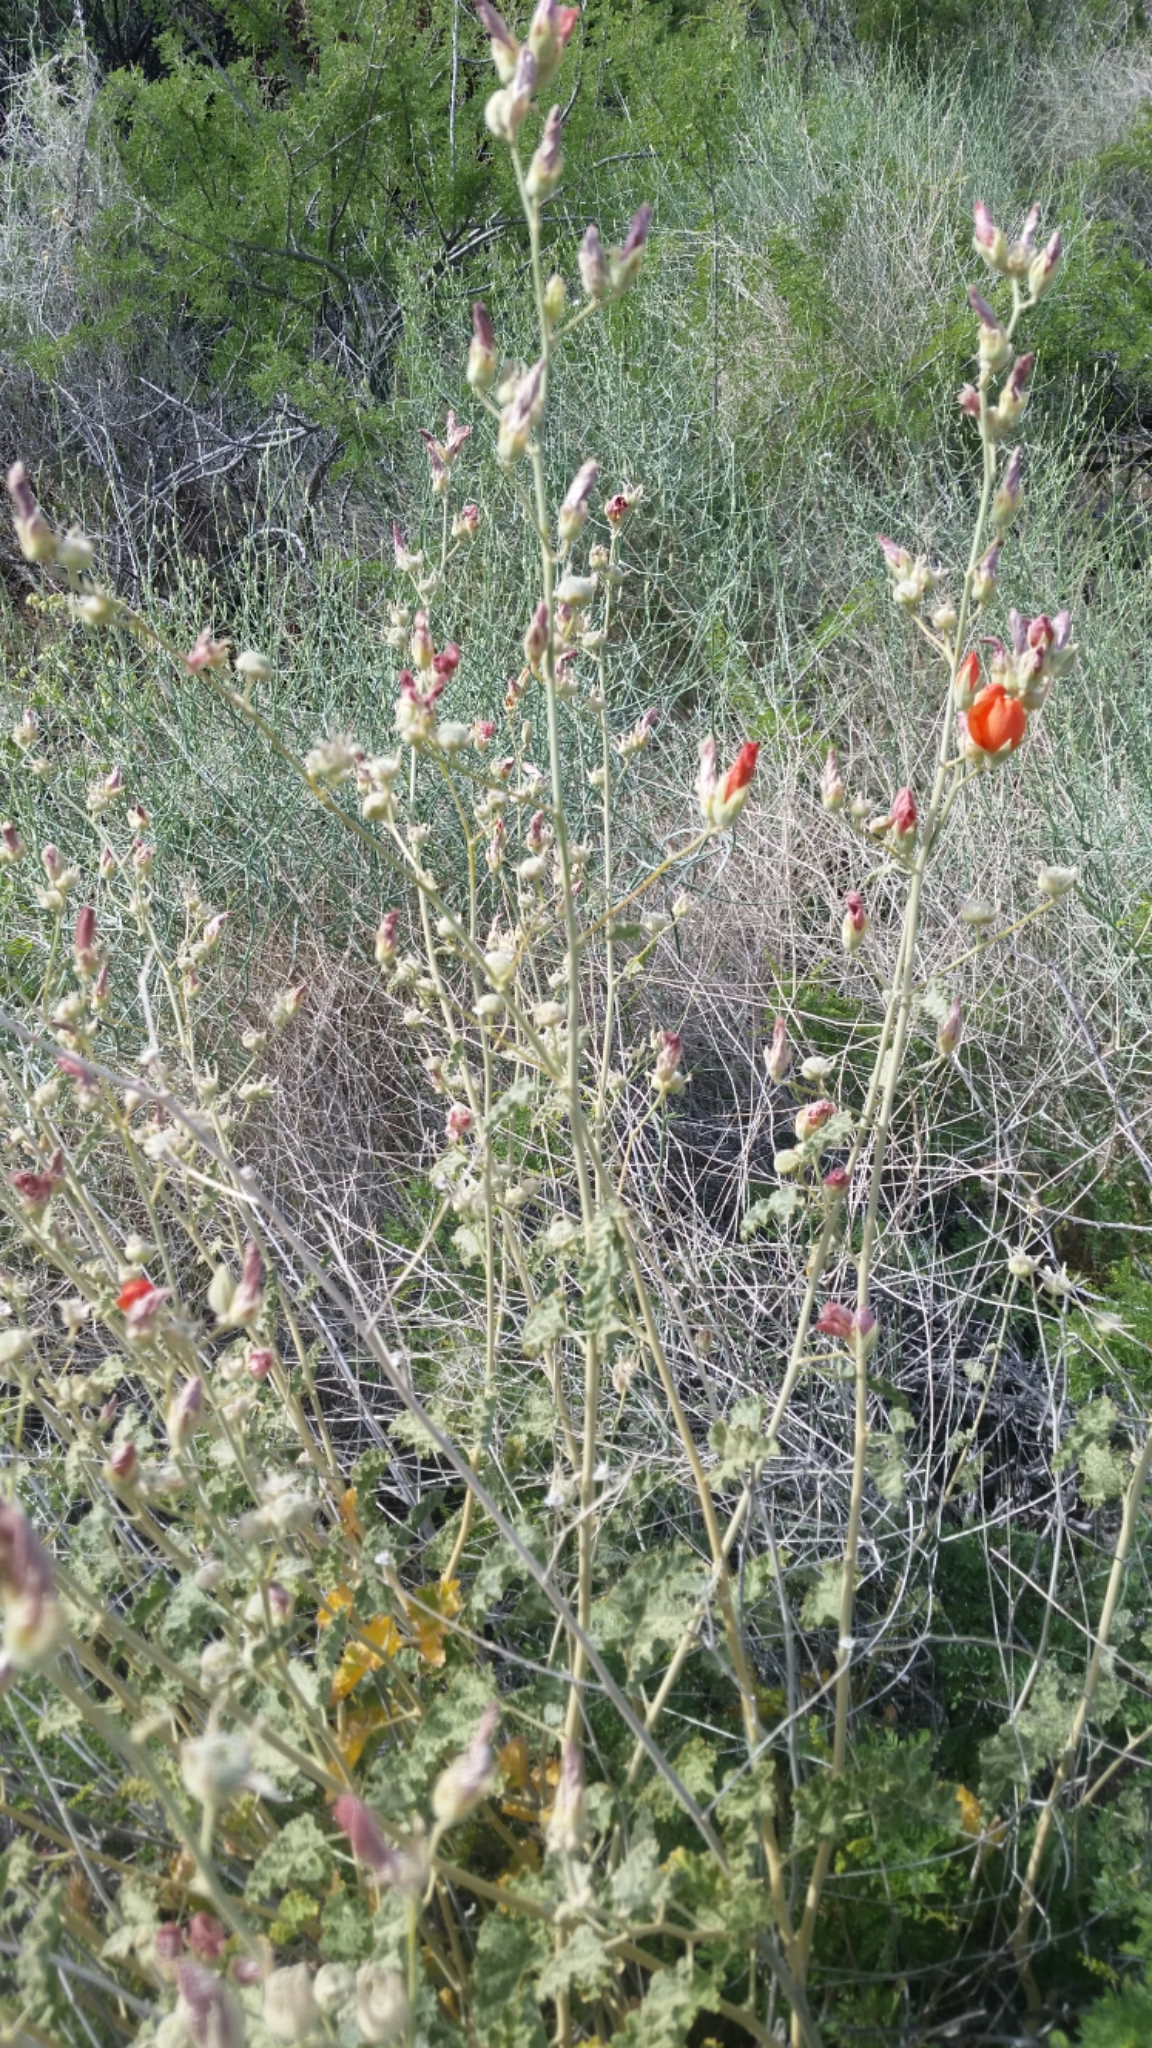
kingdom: Plantae
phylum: Tracheophyta
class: Magnoliopsida
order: Malvales
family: Malvaceae
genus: Sphaeralcea
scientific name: Sphaeralcea ambigua
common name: Apricot globe-mallow
